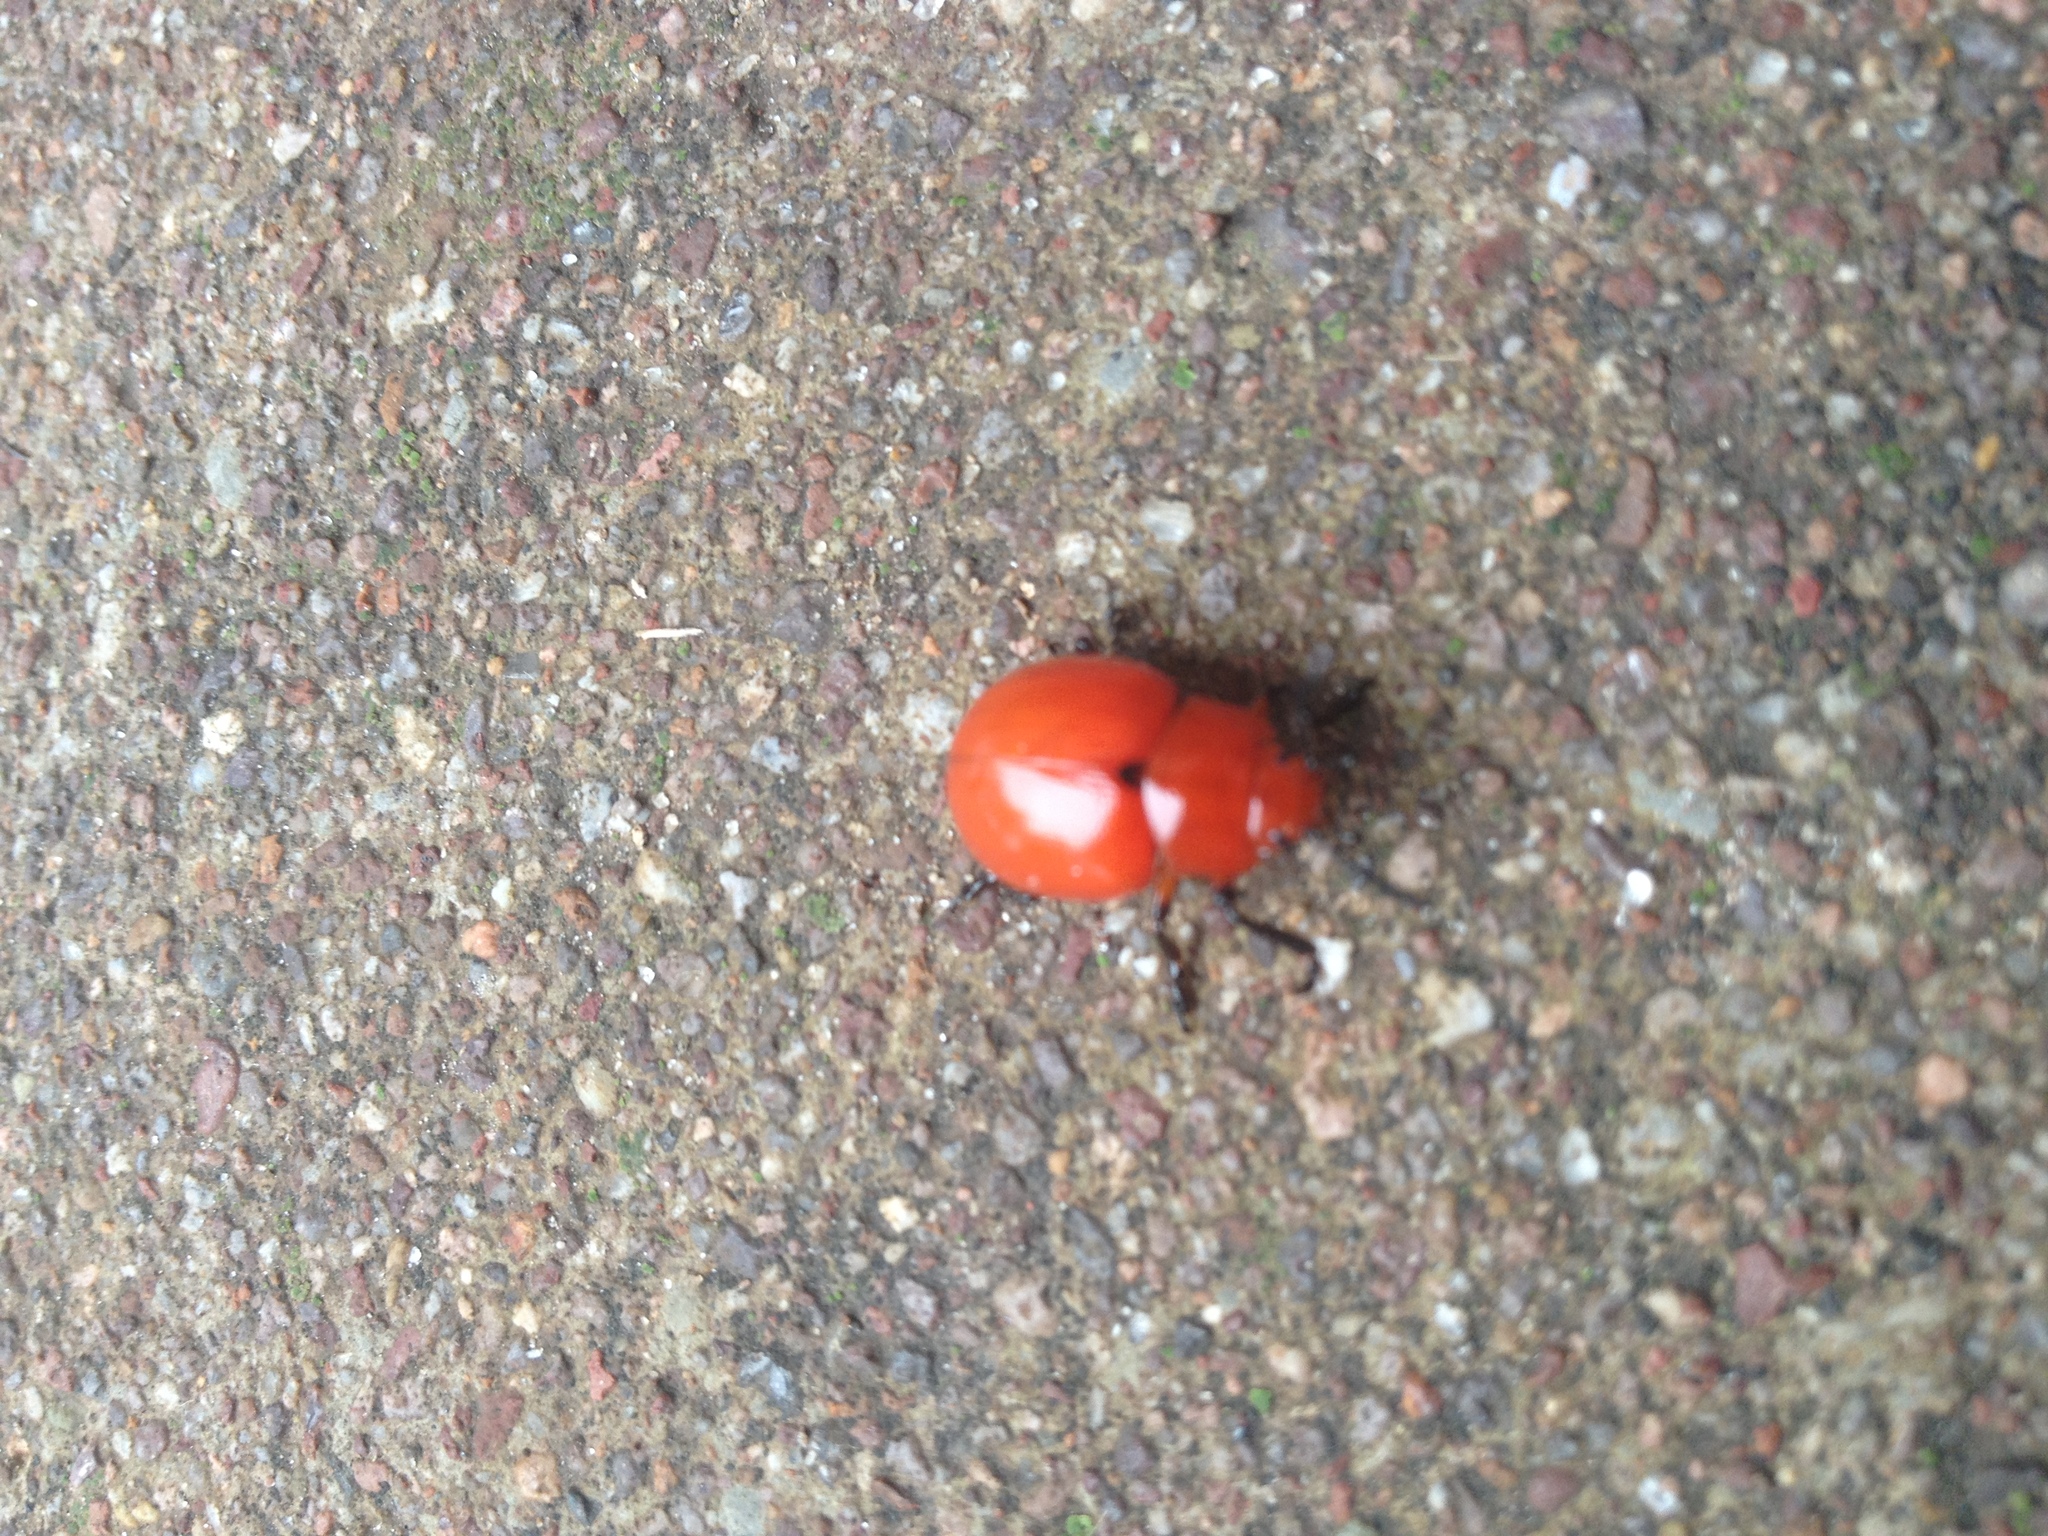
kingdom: Animalia
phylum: Arthropoda
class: Insecta
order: Coleoptera
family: Chrysomelidae
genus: Leptinotarsa
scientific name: Leptinotarsa rubiginosa
